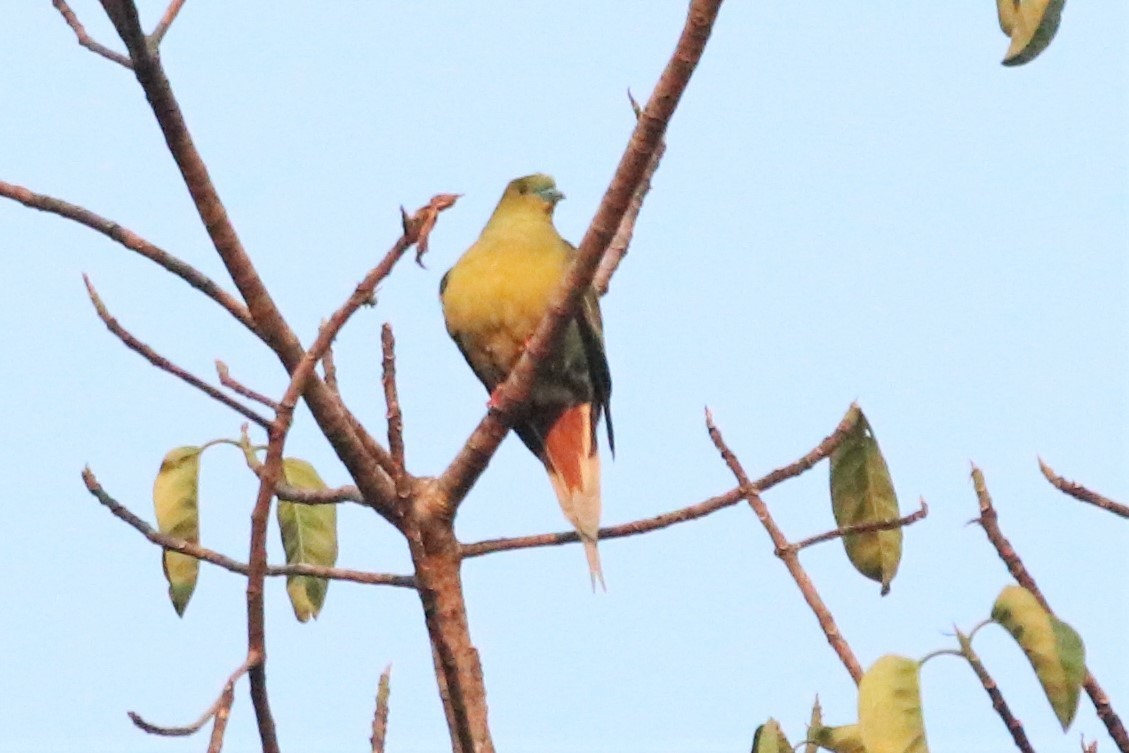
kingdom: Animalia
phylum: Chordata
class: Aves
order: Columbiformes
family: Columbidae
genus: Treron
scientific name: Treron apicauda
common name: Pin-tailed green pigeon
